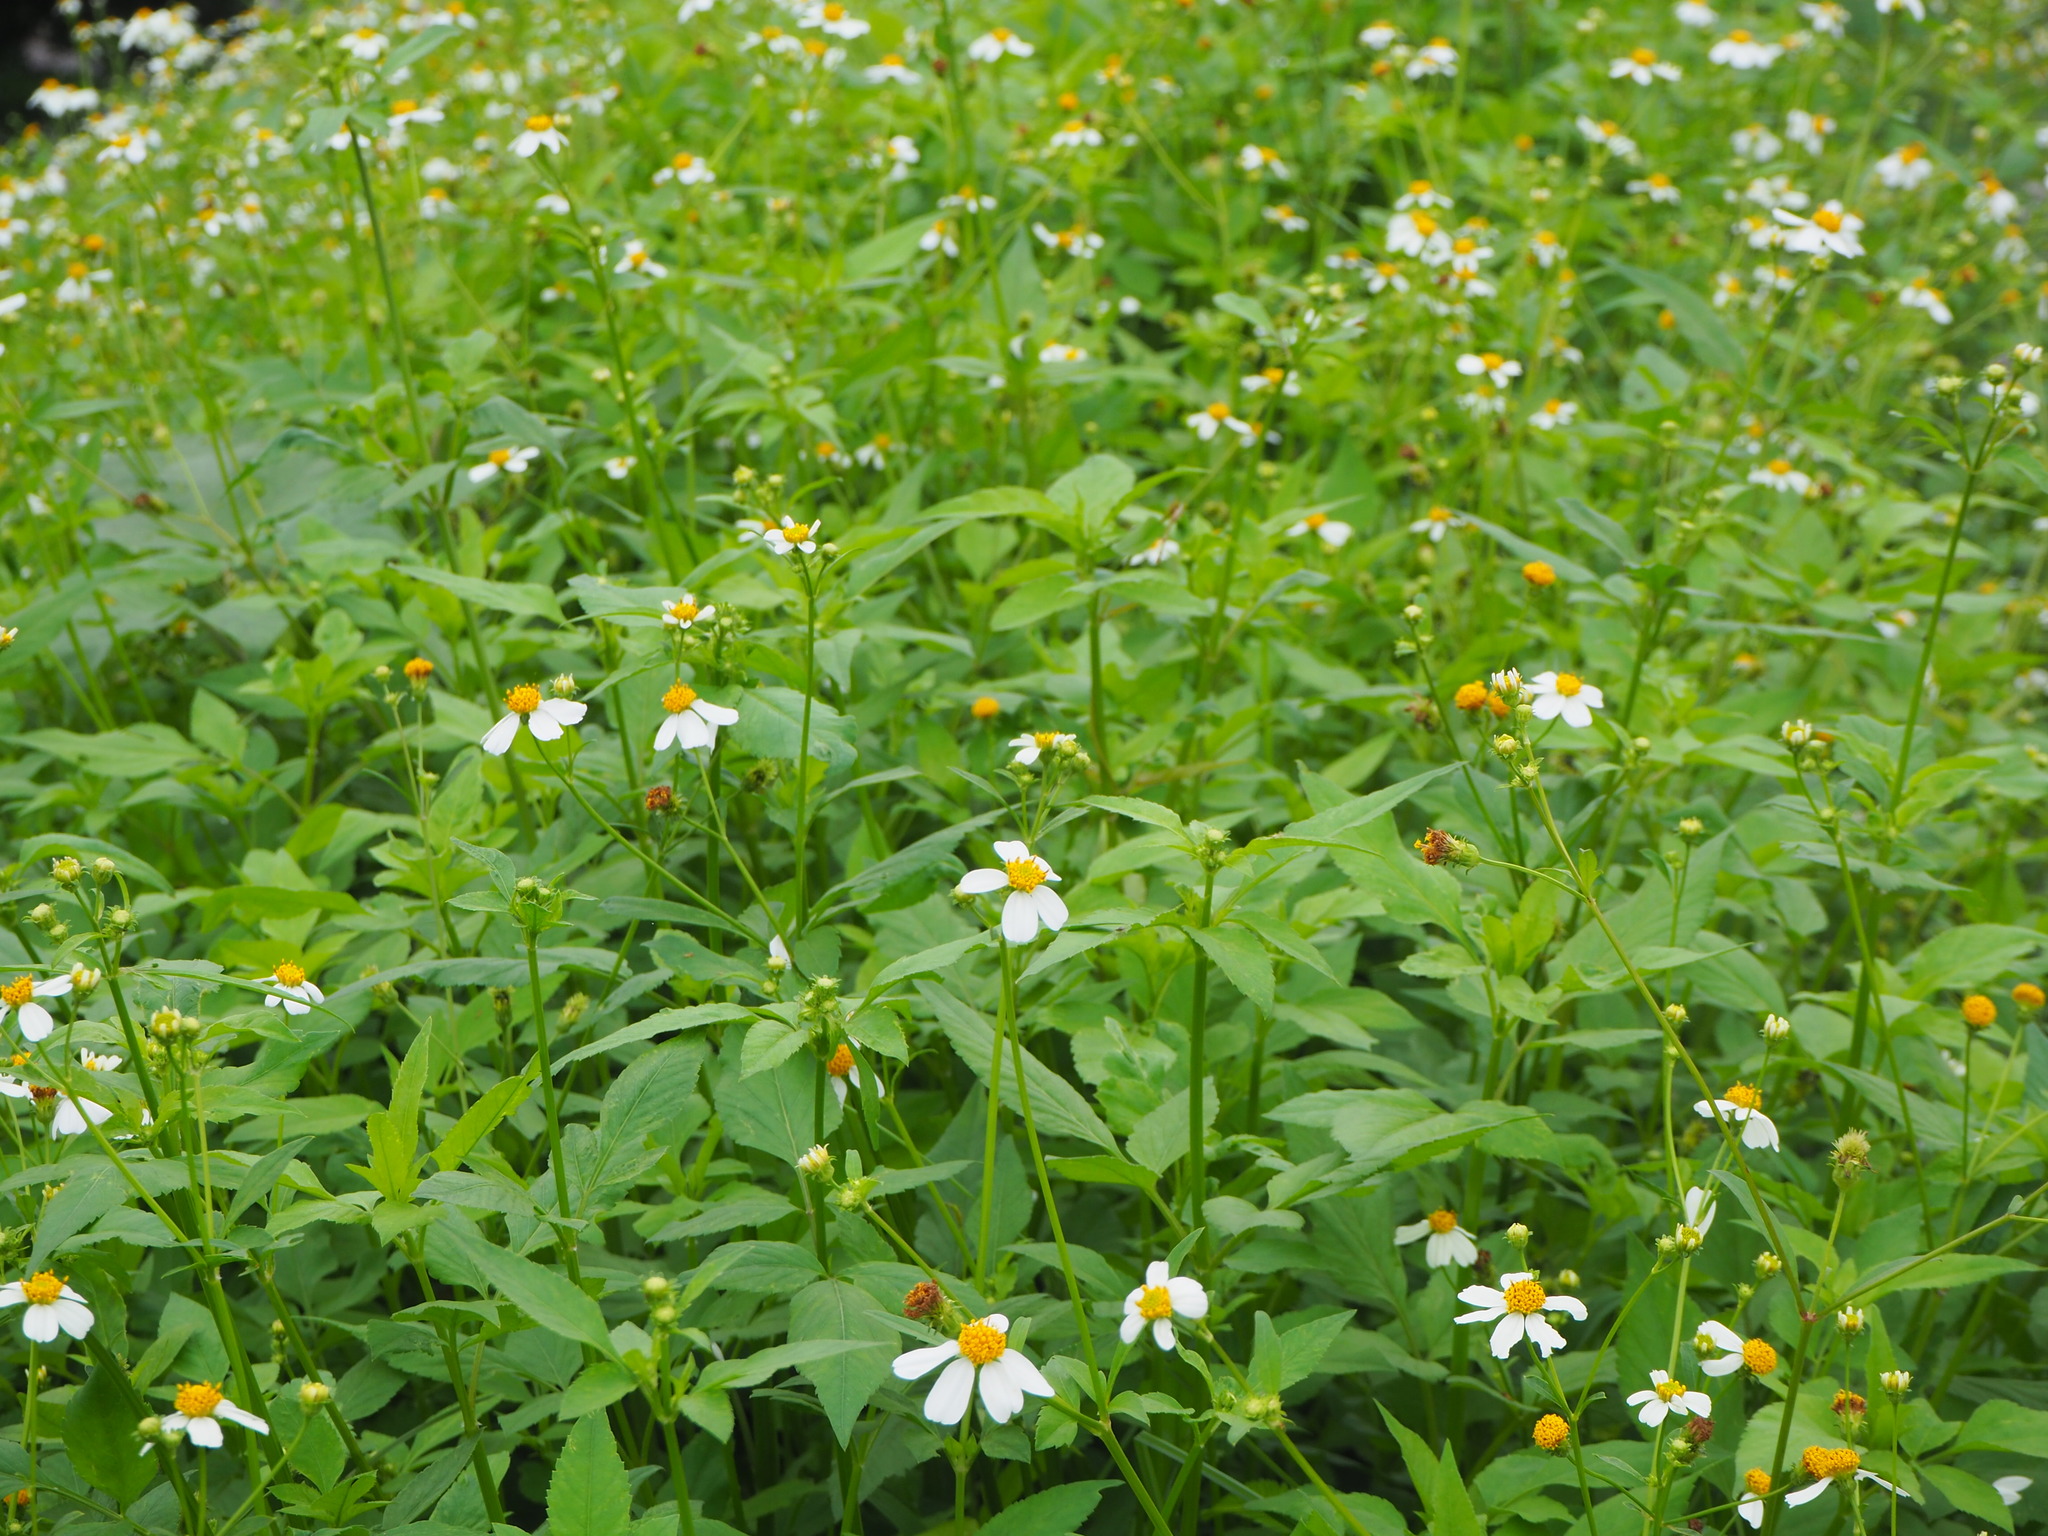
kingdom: Plantae
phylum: Tracheophyta
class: Magnoliopsida
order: Asterales
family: Asteraceae
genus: Bidens
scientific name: Bidens alba
